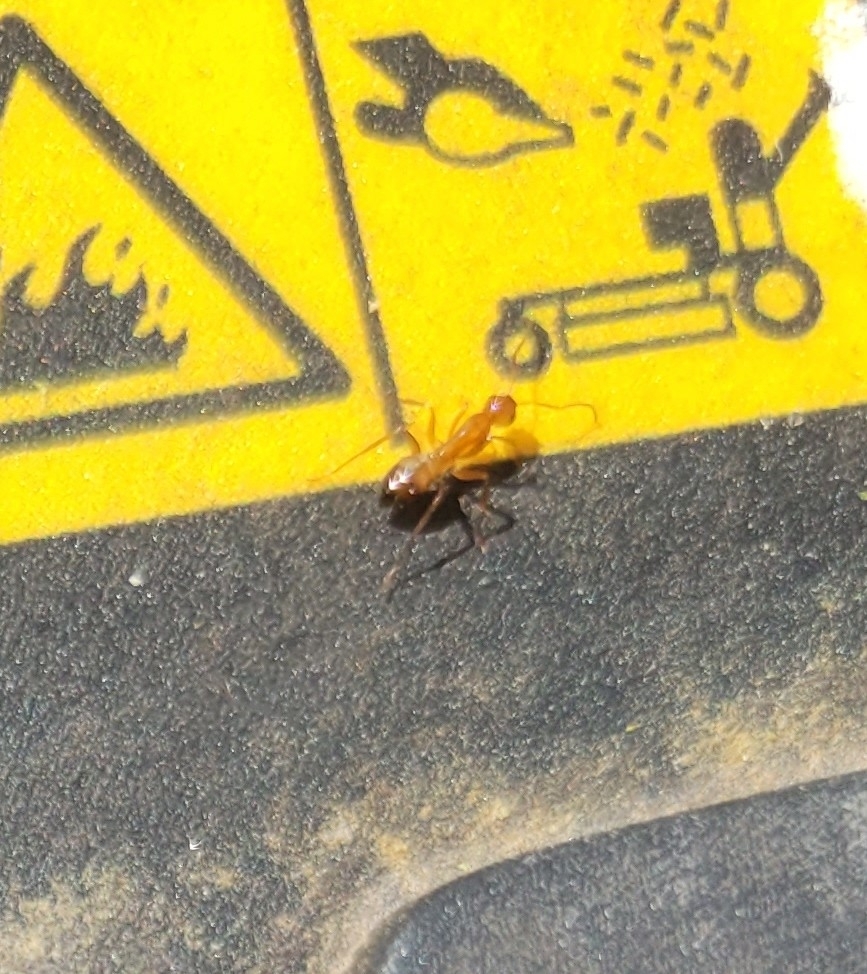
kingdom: Animalia
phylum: Arthropoda
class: Insecta
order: Hymenoptera
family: Formicidae
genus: Camponotus
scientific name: Camponotus snellingi
